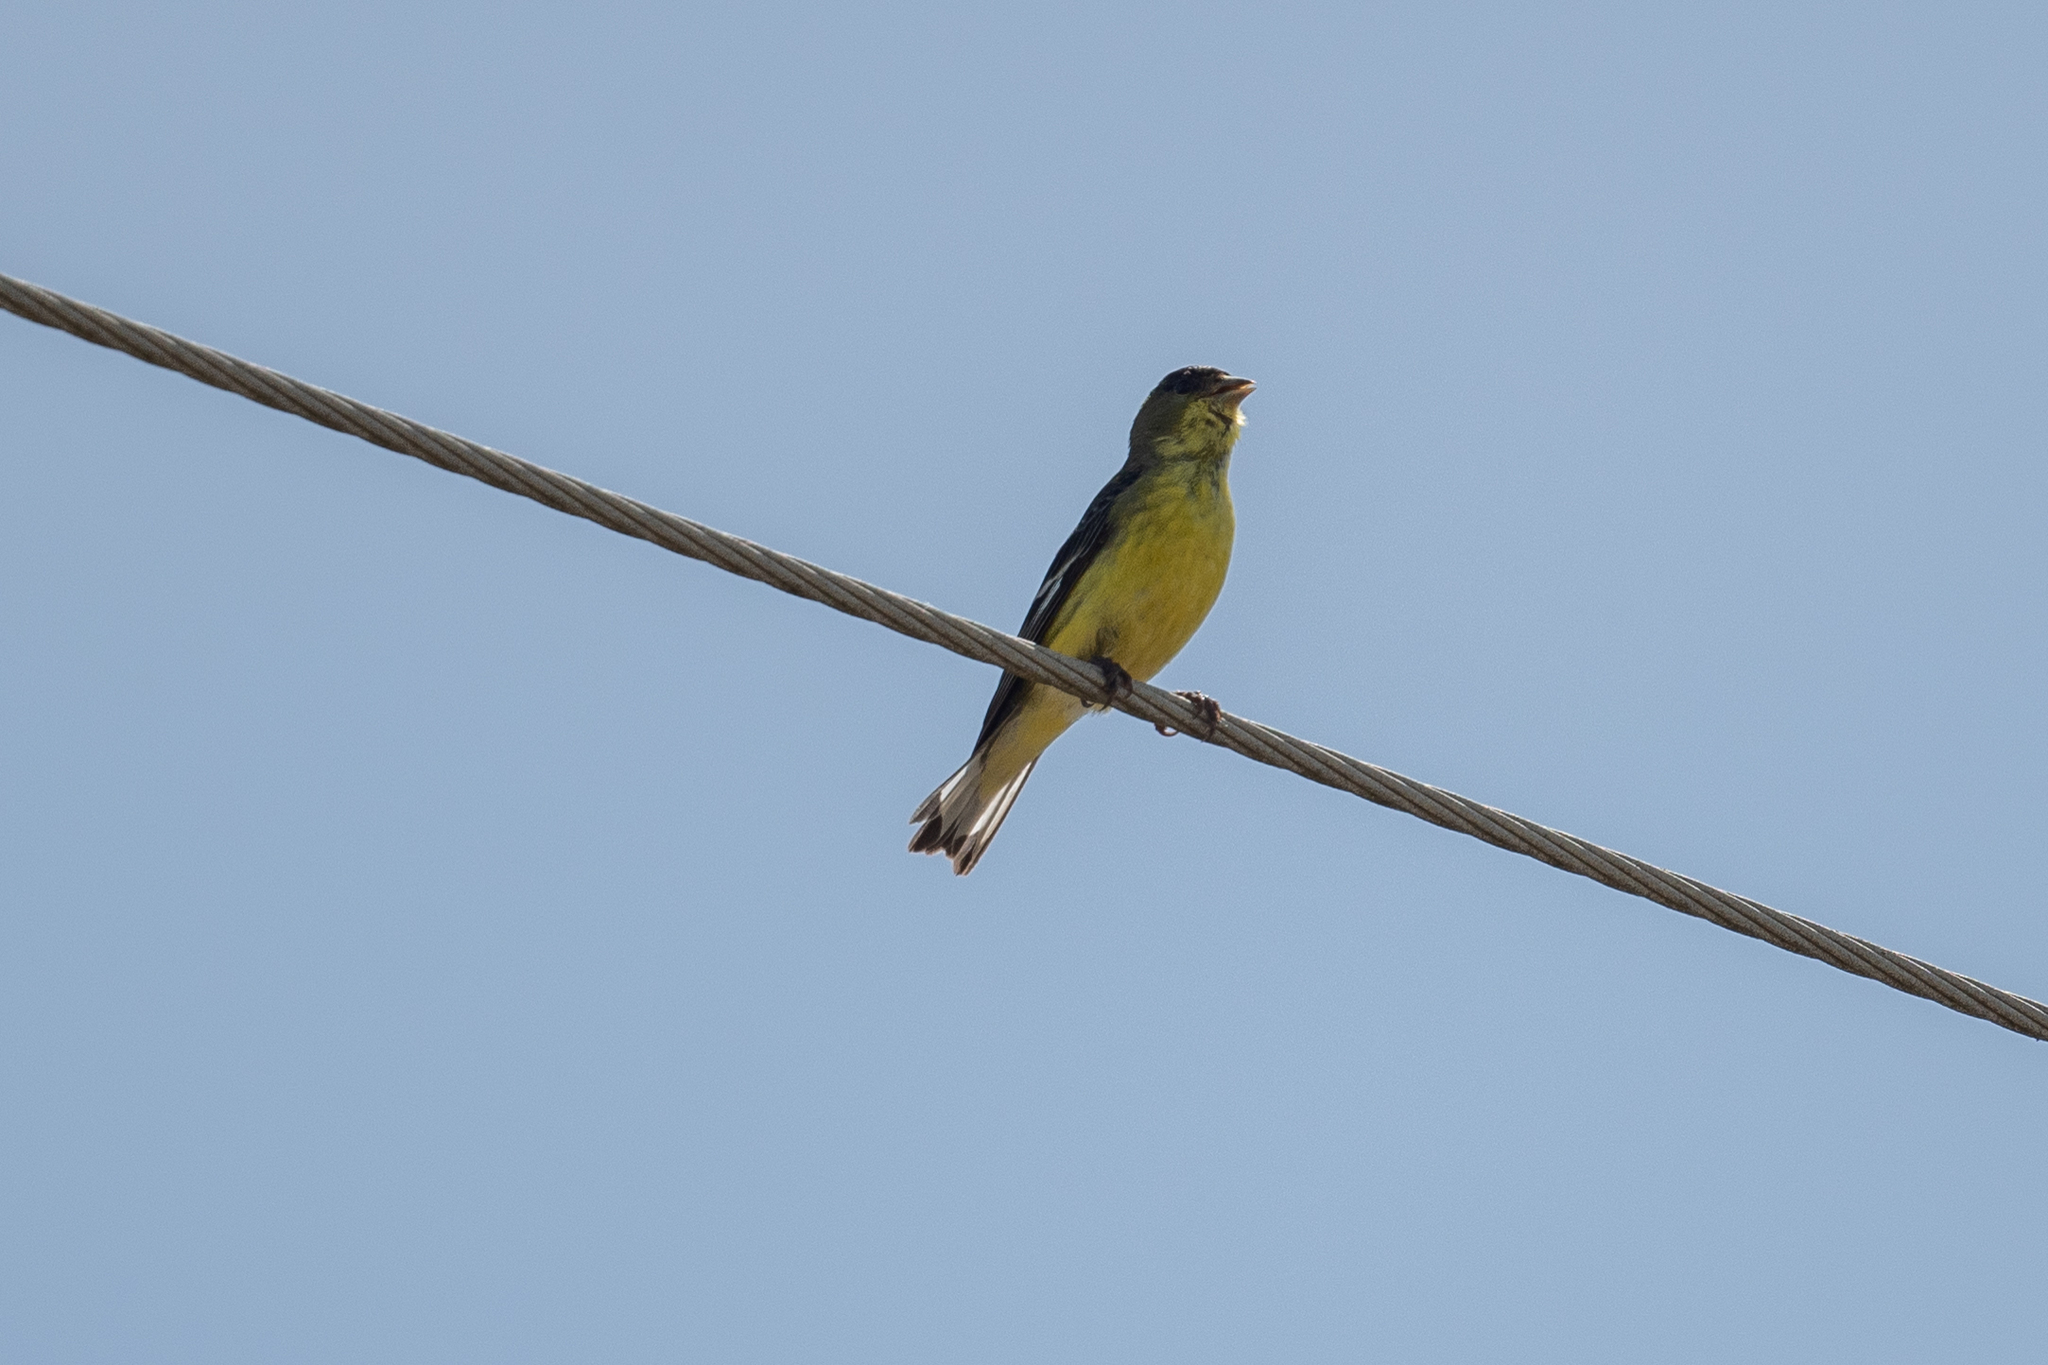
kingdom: Animalia
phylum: Chordata
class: Aves
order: Passeriformes
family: Fringillidae
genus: Spinus
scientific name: Spinus psaltria
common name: Lesser goldfinch
